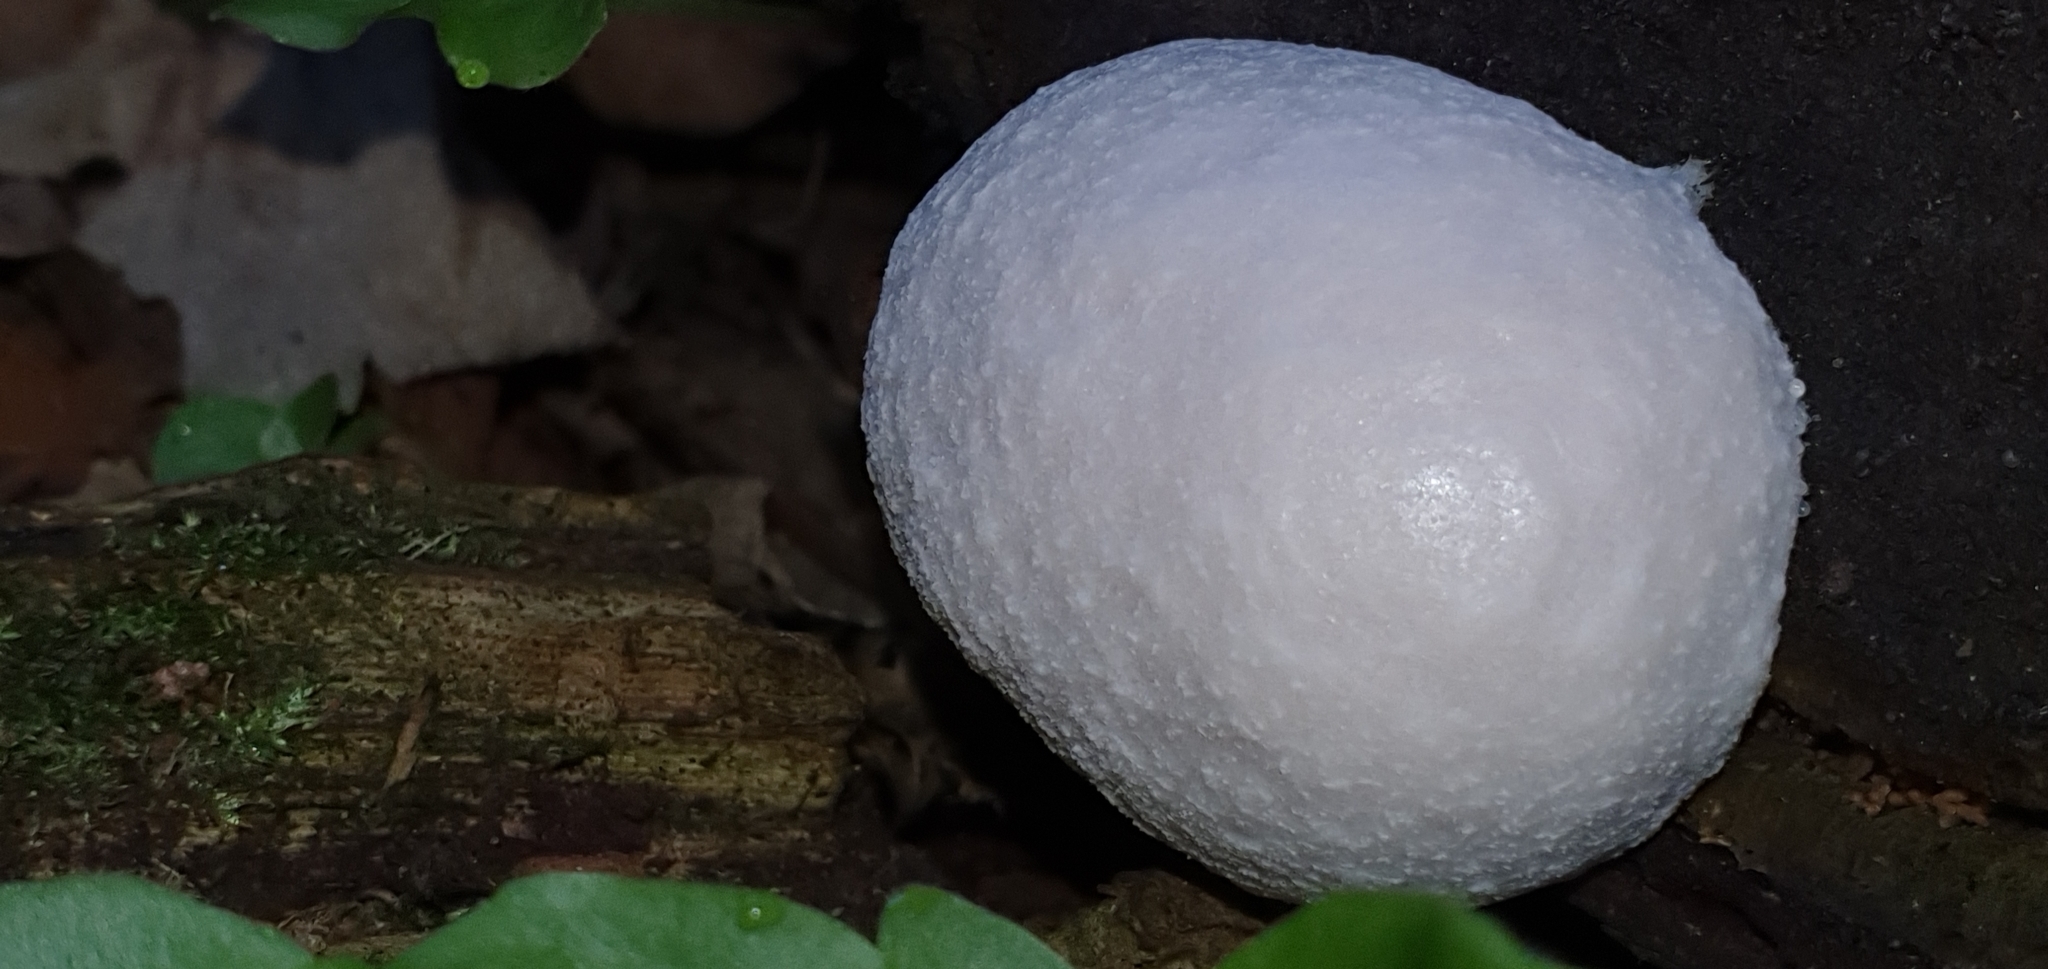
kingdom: Protozoa
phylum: Mycetozoa
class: Myxomycetes
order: Cribrariales
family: Tubiferaceae
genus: Reticularia
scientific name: Reticularia lycoperdon
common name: False puffball
